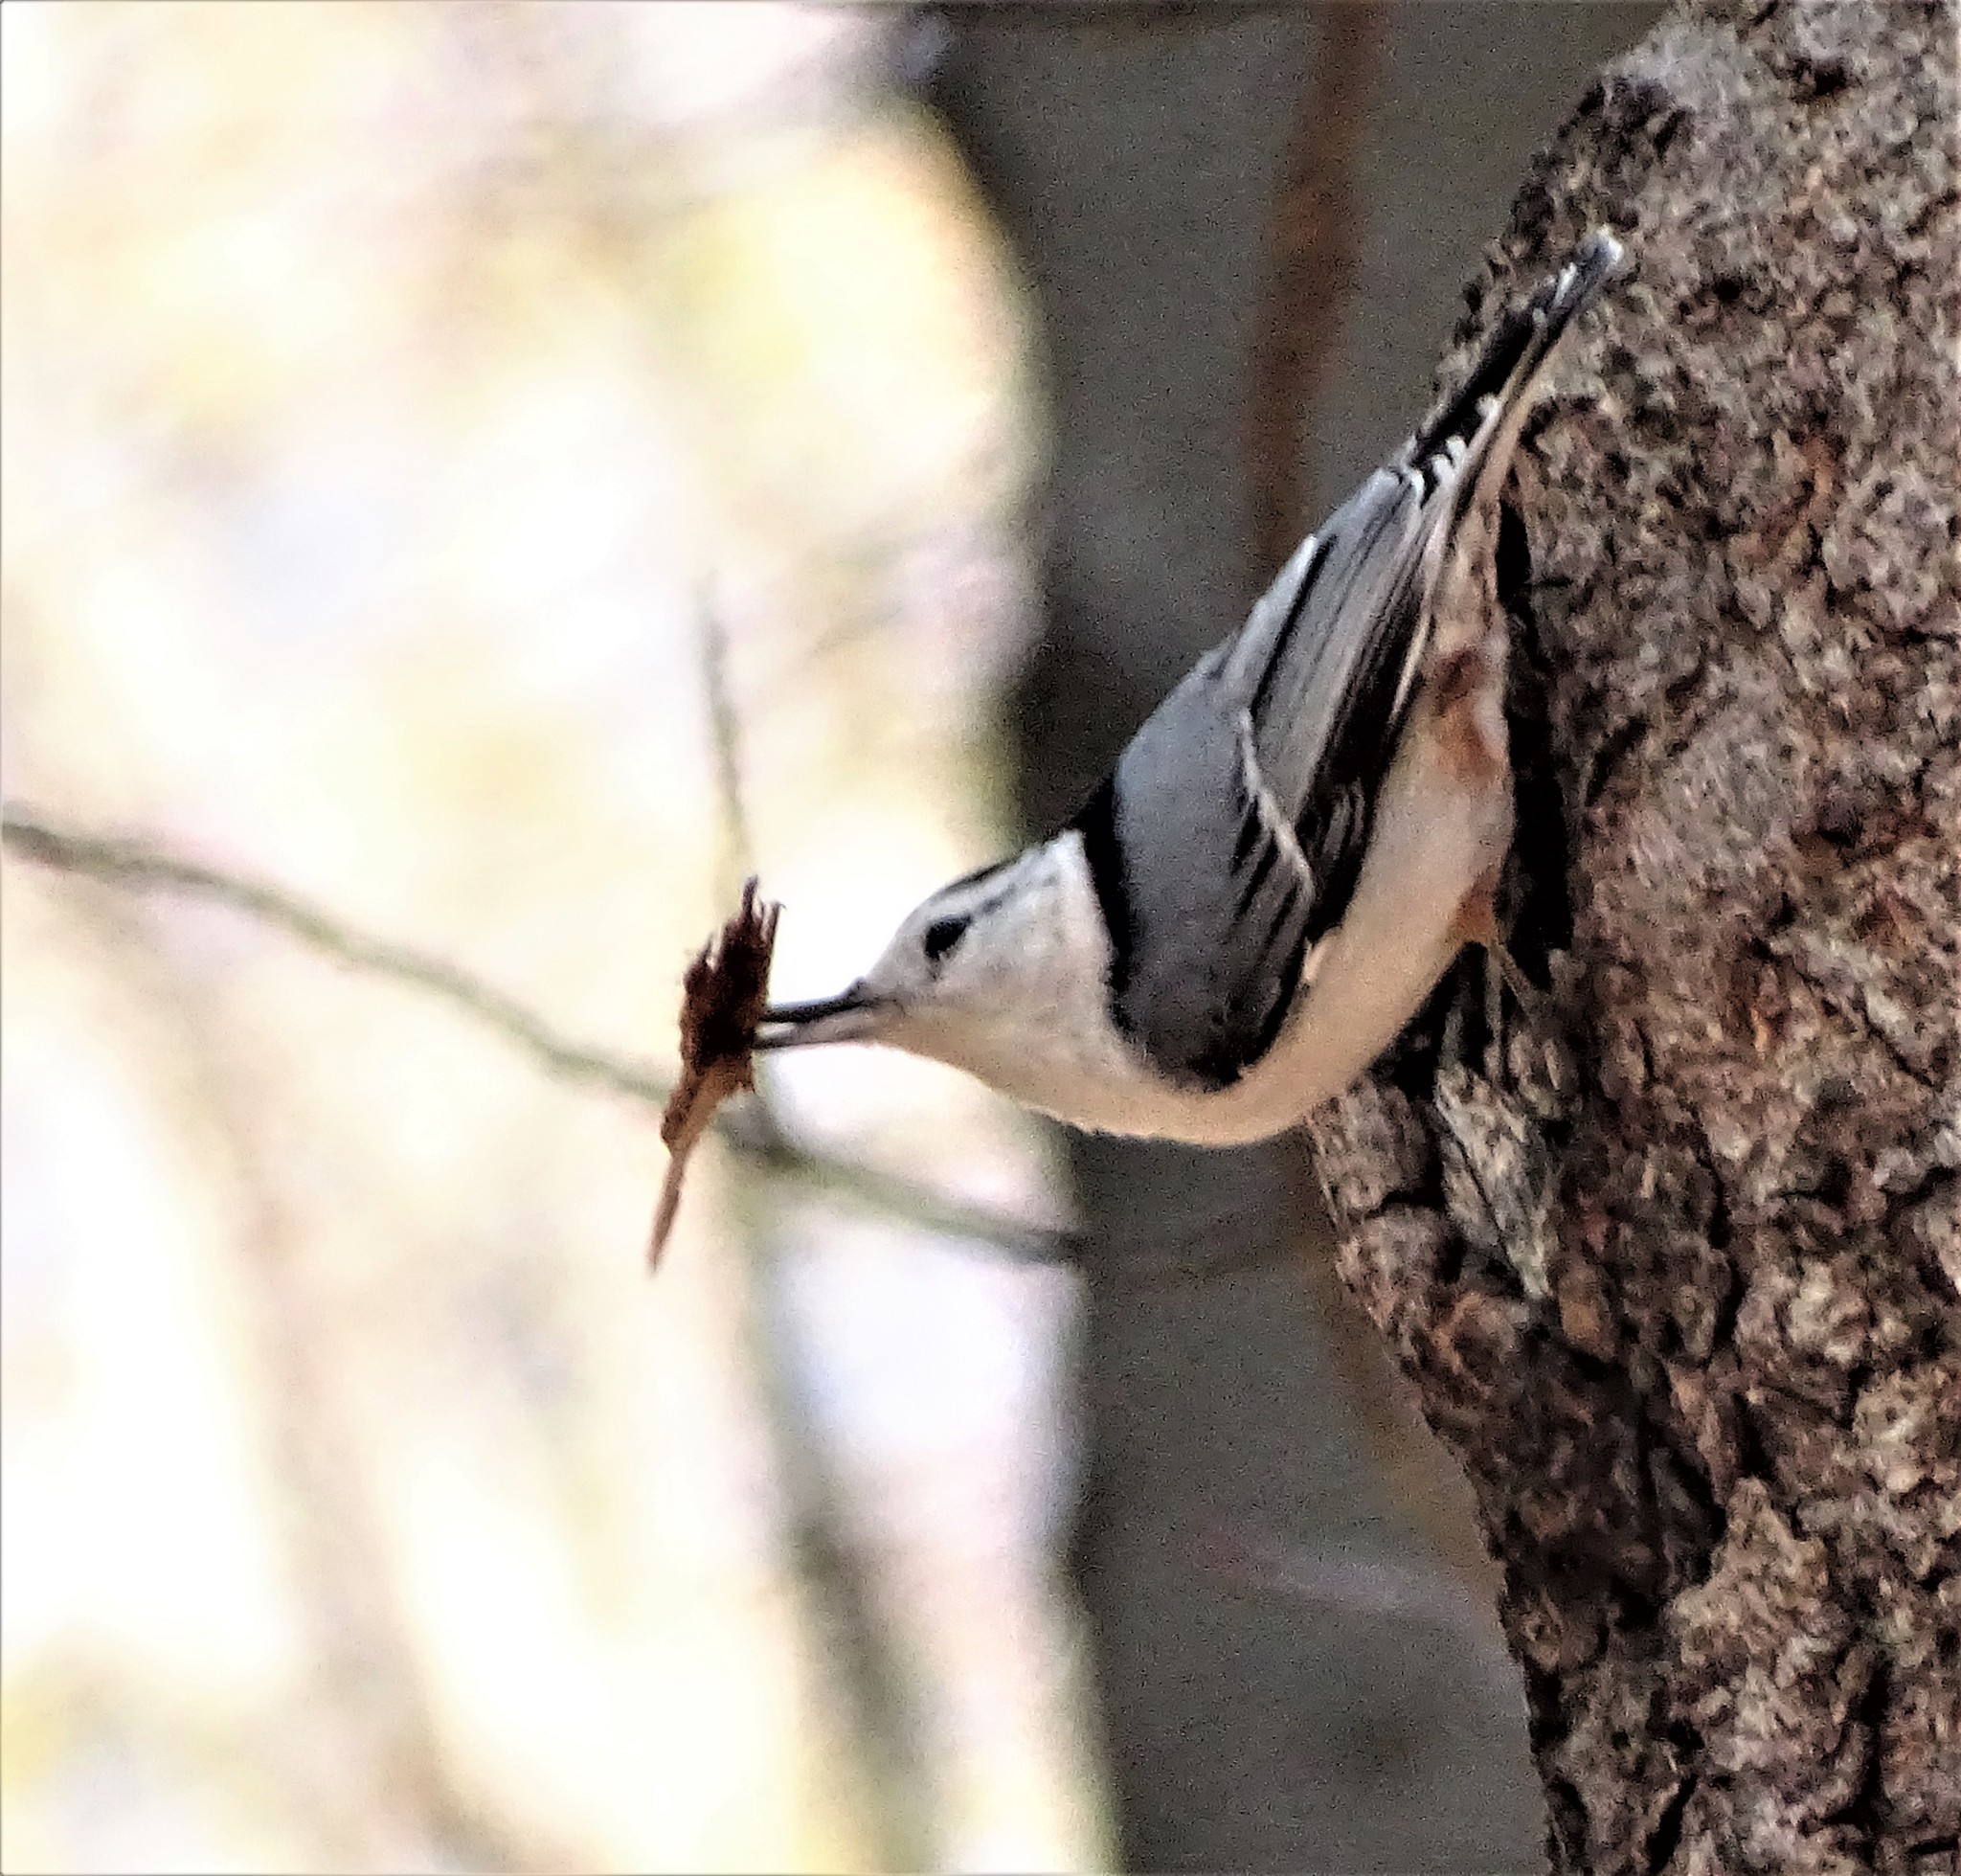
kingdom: Animalia
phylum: Chordata
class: Aves
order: Passeriformes
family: Sittidae
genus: Sitta
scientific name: Sitta carolinensis
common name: White-breasted nuthatch
